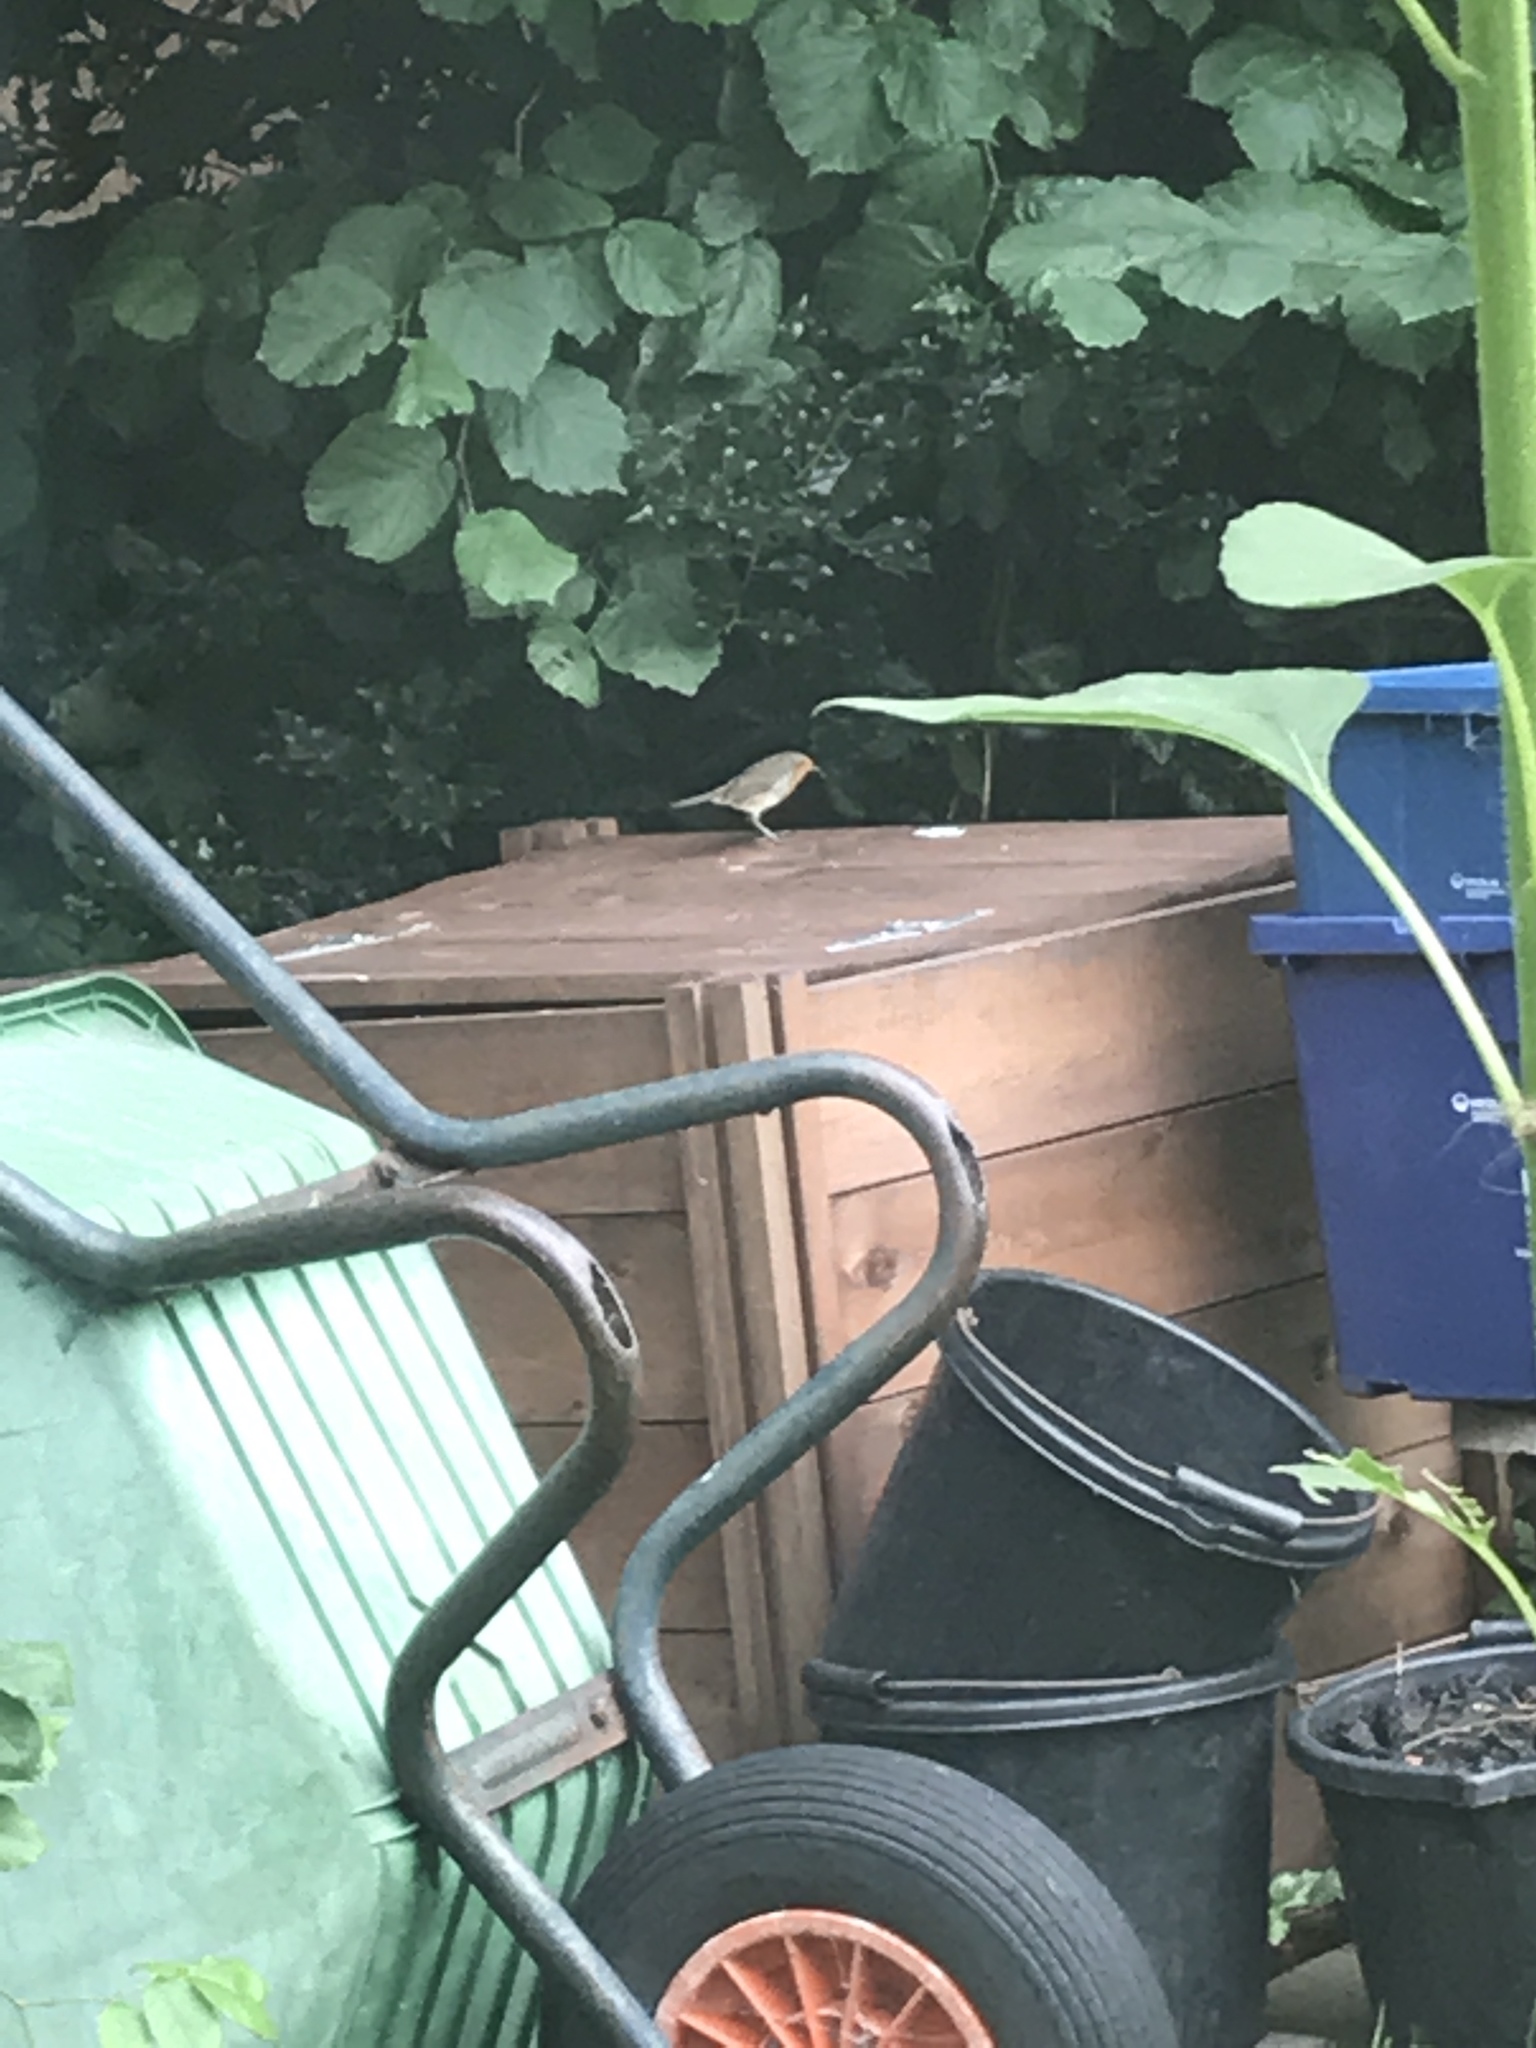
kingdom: Animalia
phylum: Chordata
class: Aves
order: Passeriformes
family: Muscicapidae
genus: Erithacus
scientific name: Erithacus rubecula
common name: European robin
